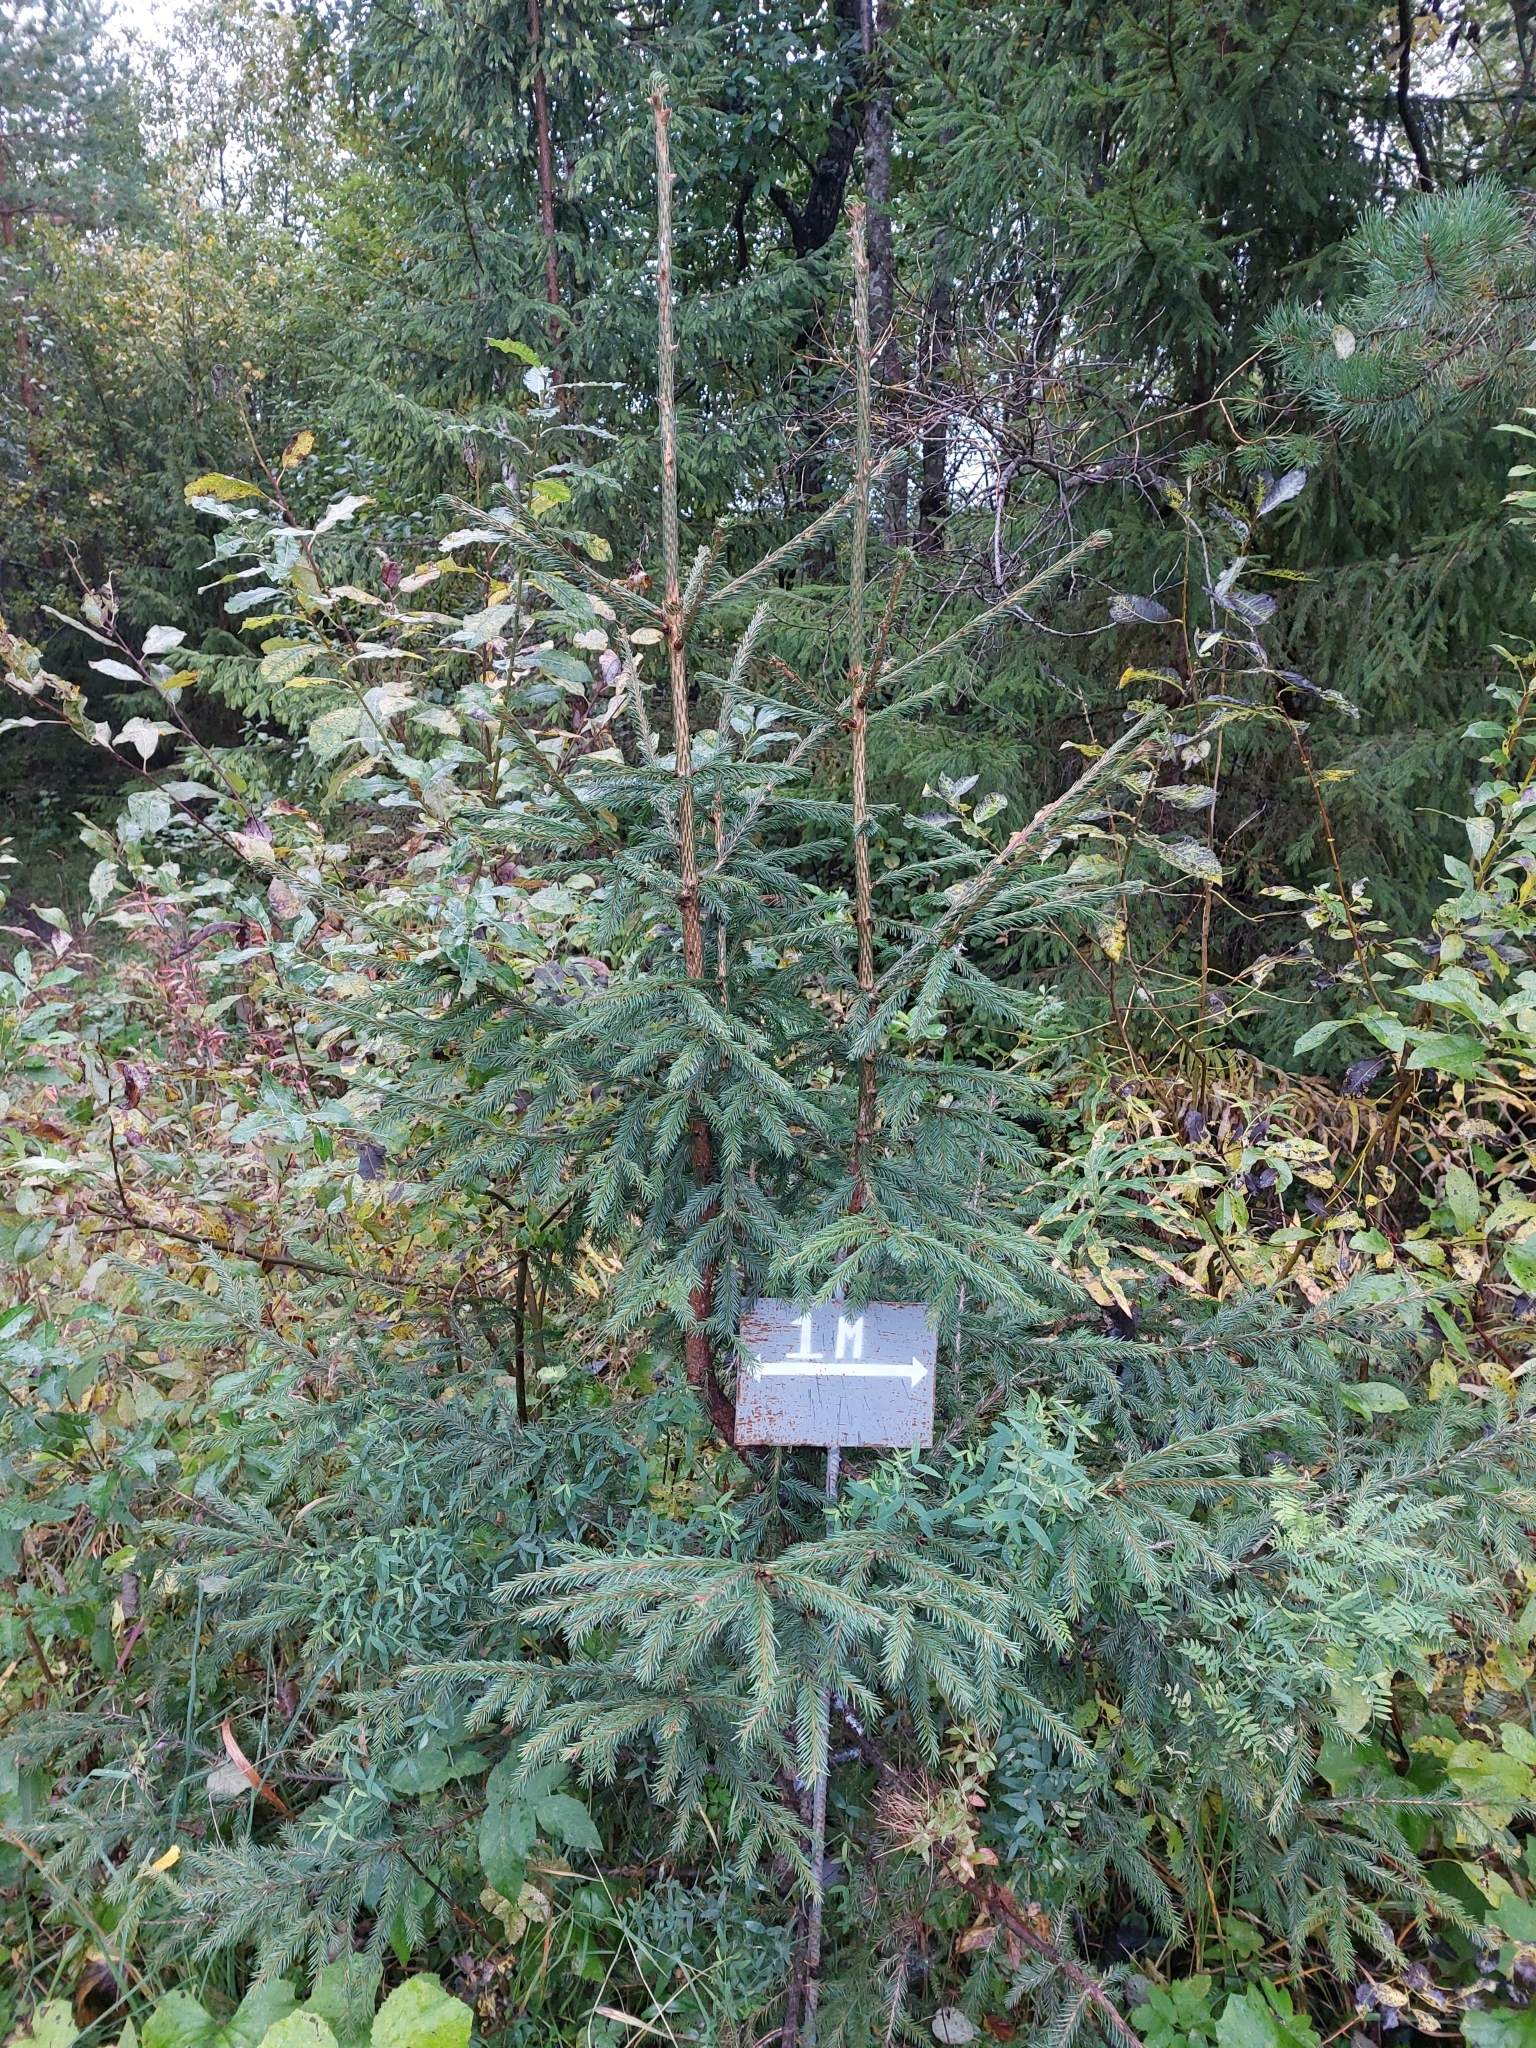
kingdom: Plantae
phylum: Tracheophyta
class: Pinopsida
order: Pinales
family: Pinaceae
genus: Picea
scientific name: Picea abies
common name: Norway spruce
